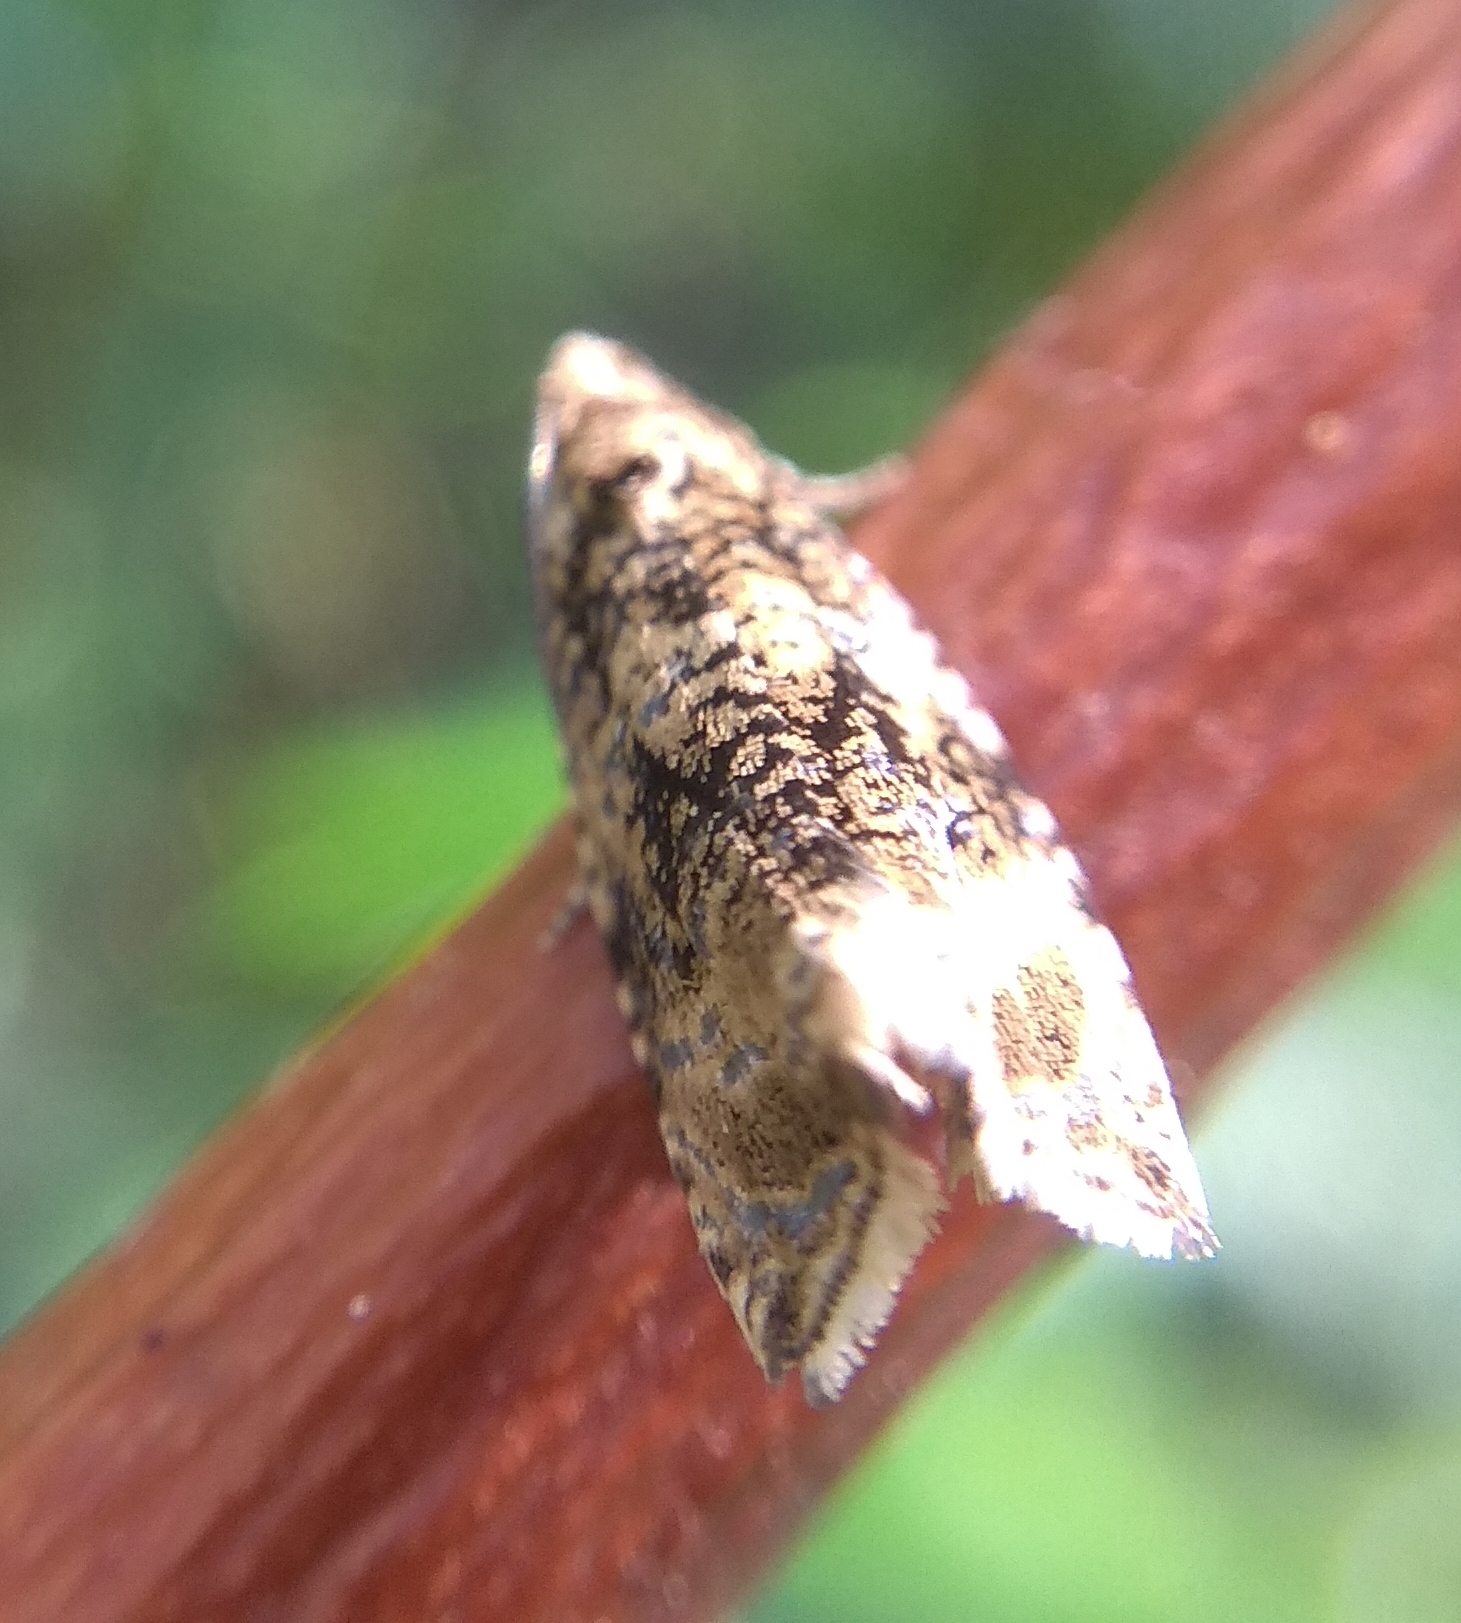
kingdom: Animalia
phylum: Arthropoda
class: Insecta
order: Lepidoptera
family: Tortricidae
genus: Syricoris
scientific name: Syricoris lacunana
